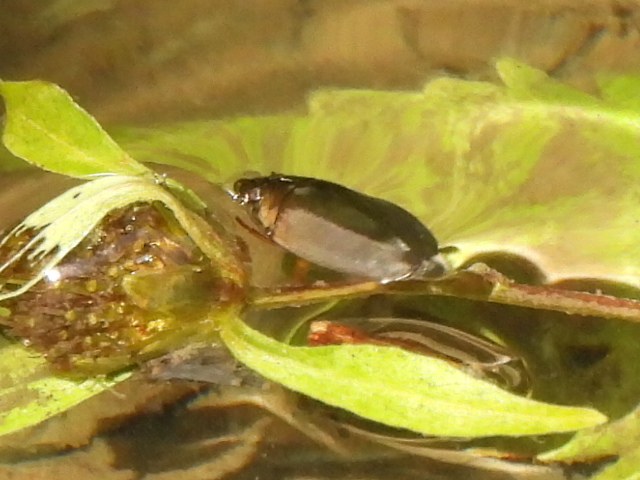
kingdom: Animalia
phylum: Arthropoda
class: Insecta
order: Coleoptera
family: Gyrinidae
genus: Dineutus
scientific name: Dineutus
